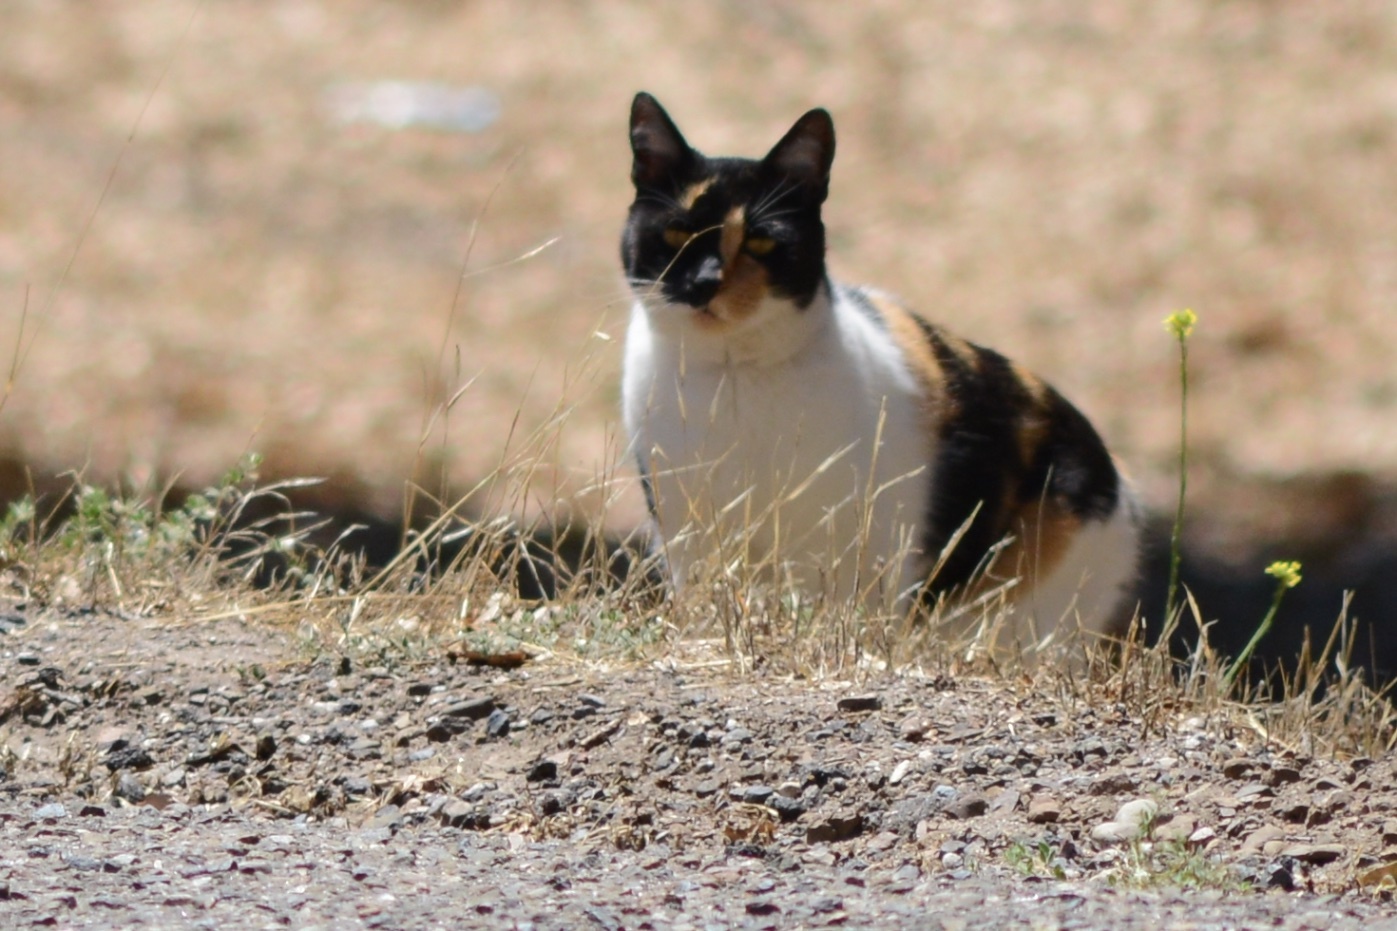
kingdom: Animalia
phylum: Chordata
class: Mammalia
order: Carnivora
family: Felidae
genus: Felis
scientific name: Felis catus
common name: Domestic cat
